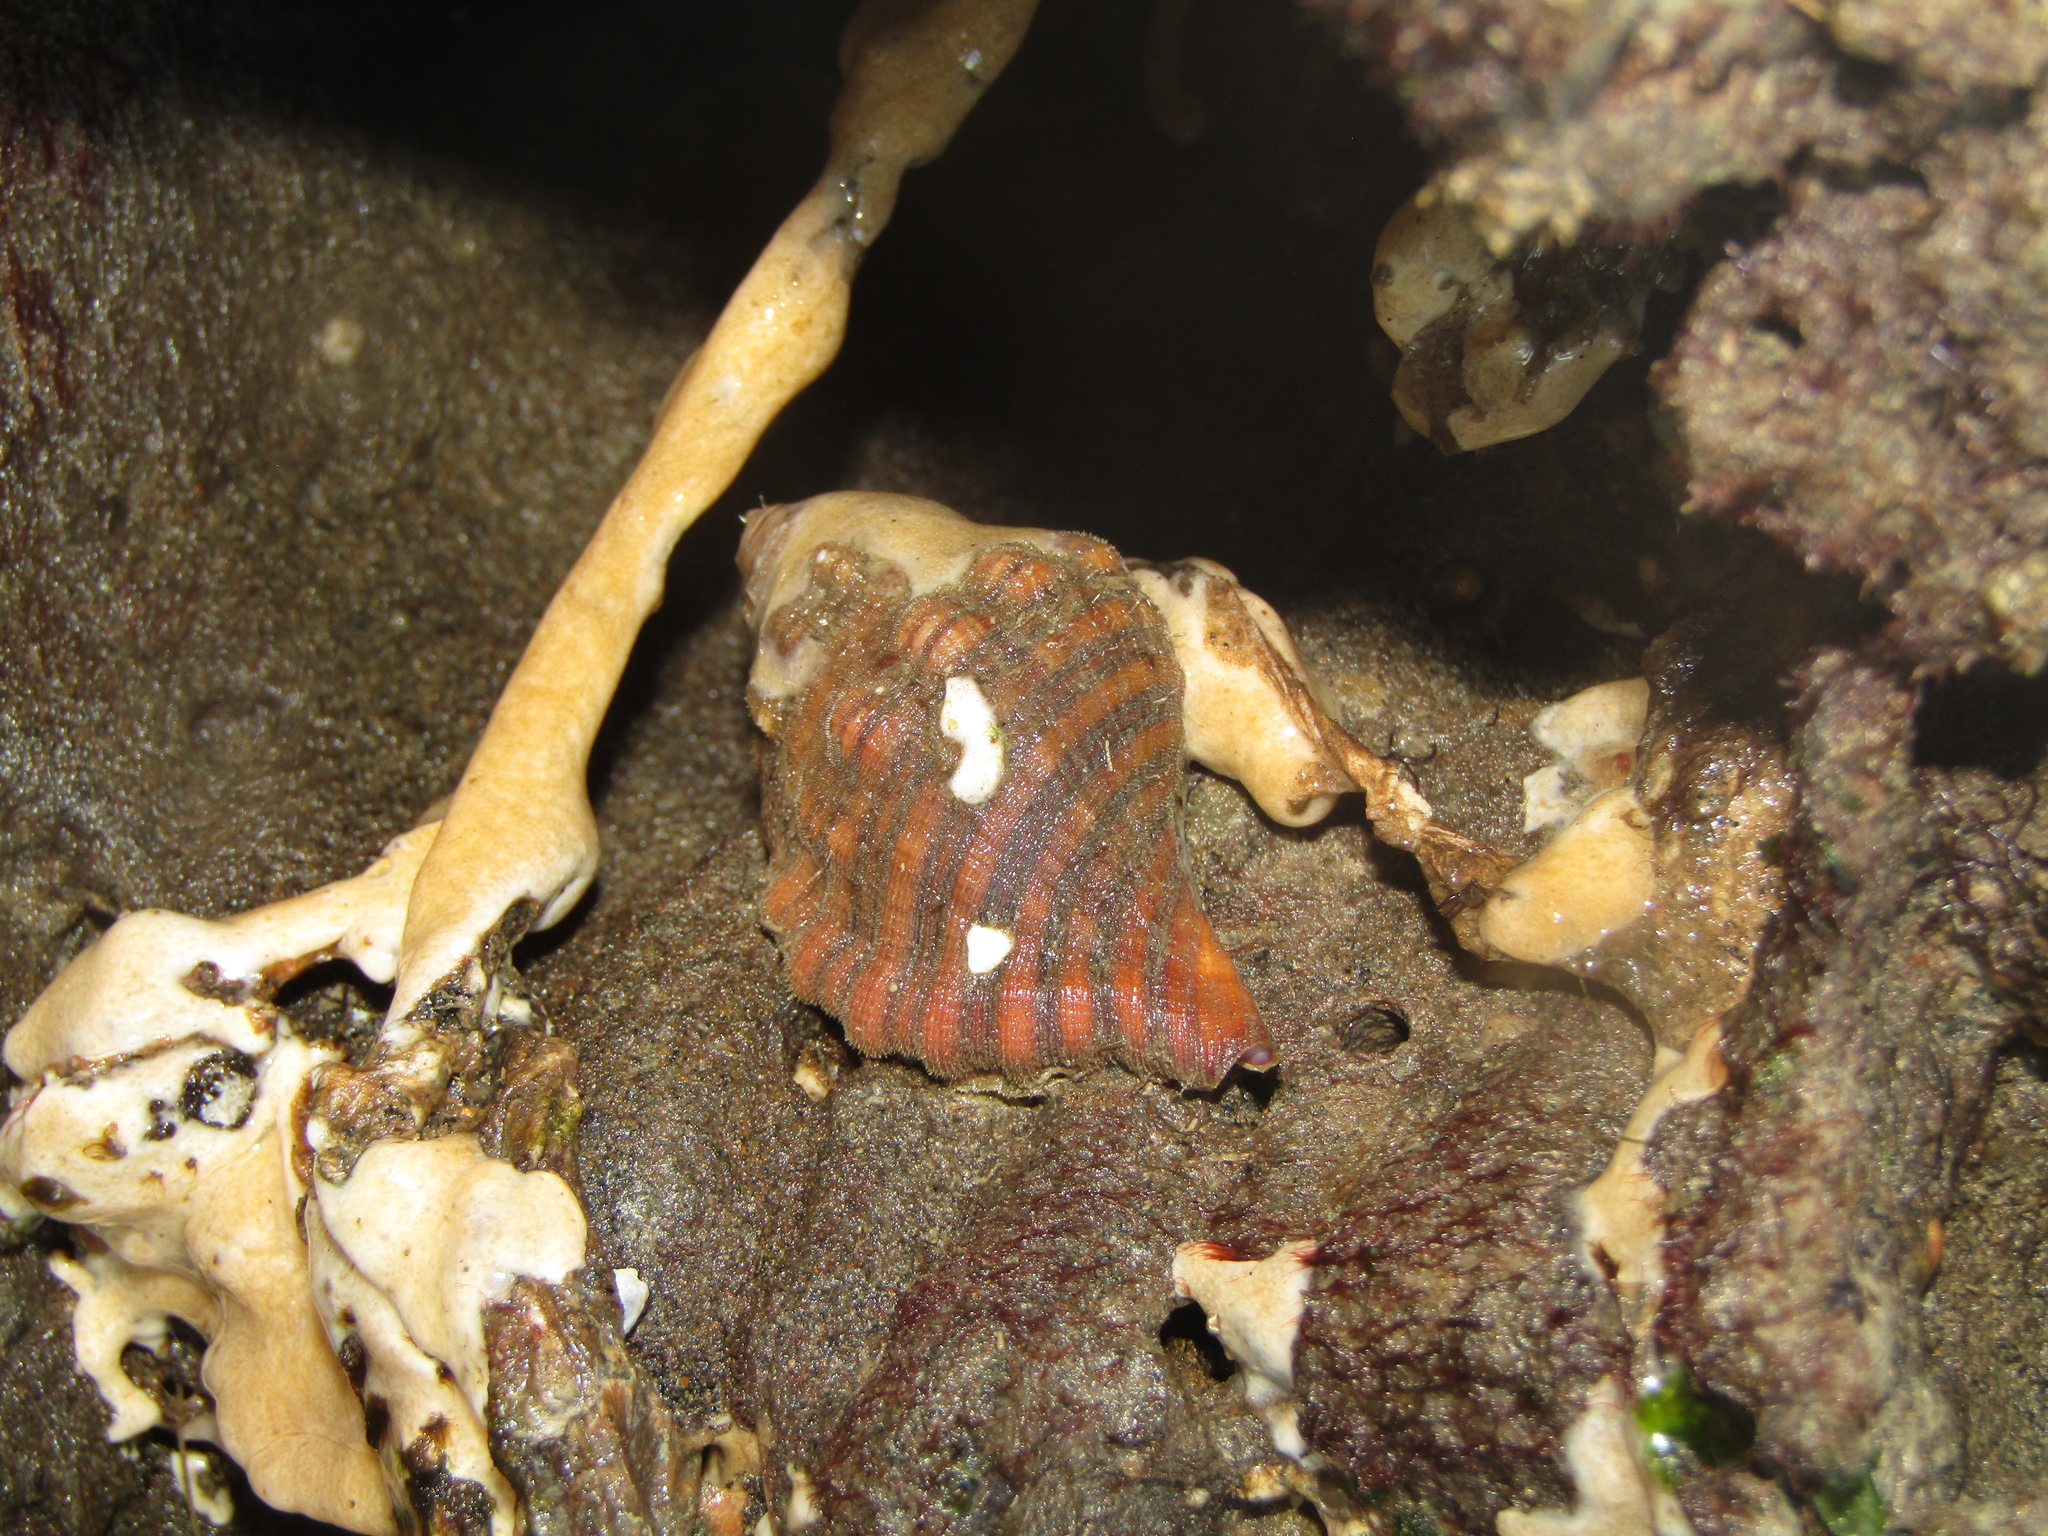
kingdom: Animalia
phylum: Mollusca
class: Gastropoda
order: Littorinimorpha
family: Cymatiidae
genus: Cabestana
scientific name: Cabestana spengleri
